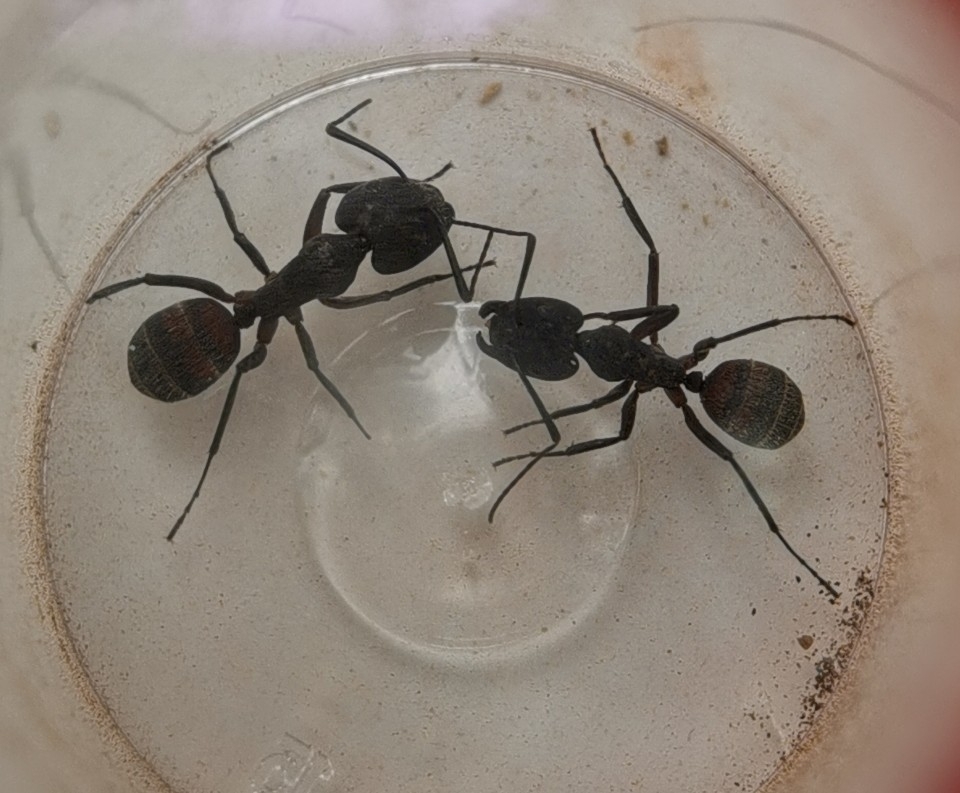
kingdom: Animalia
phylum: Arthropoda
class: Insecta
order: Hymenoptera
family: Formicidae
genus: Camponotus
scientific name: Camponotus cruentatus
